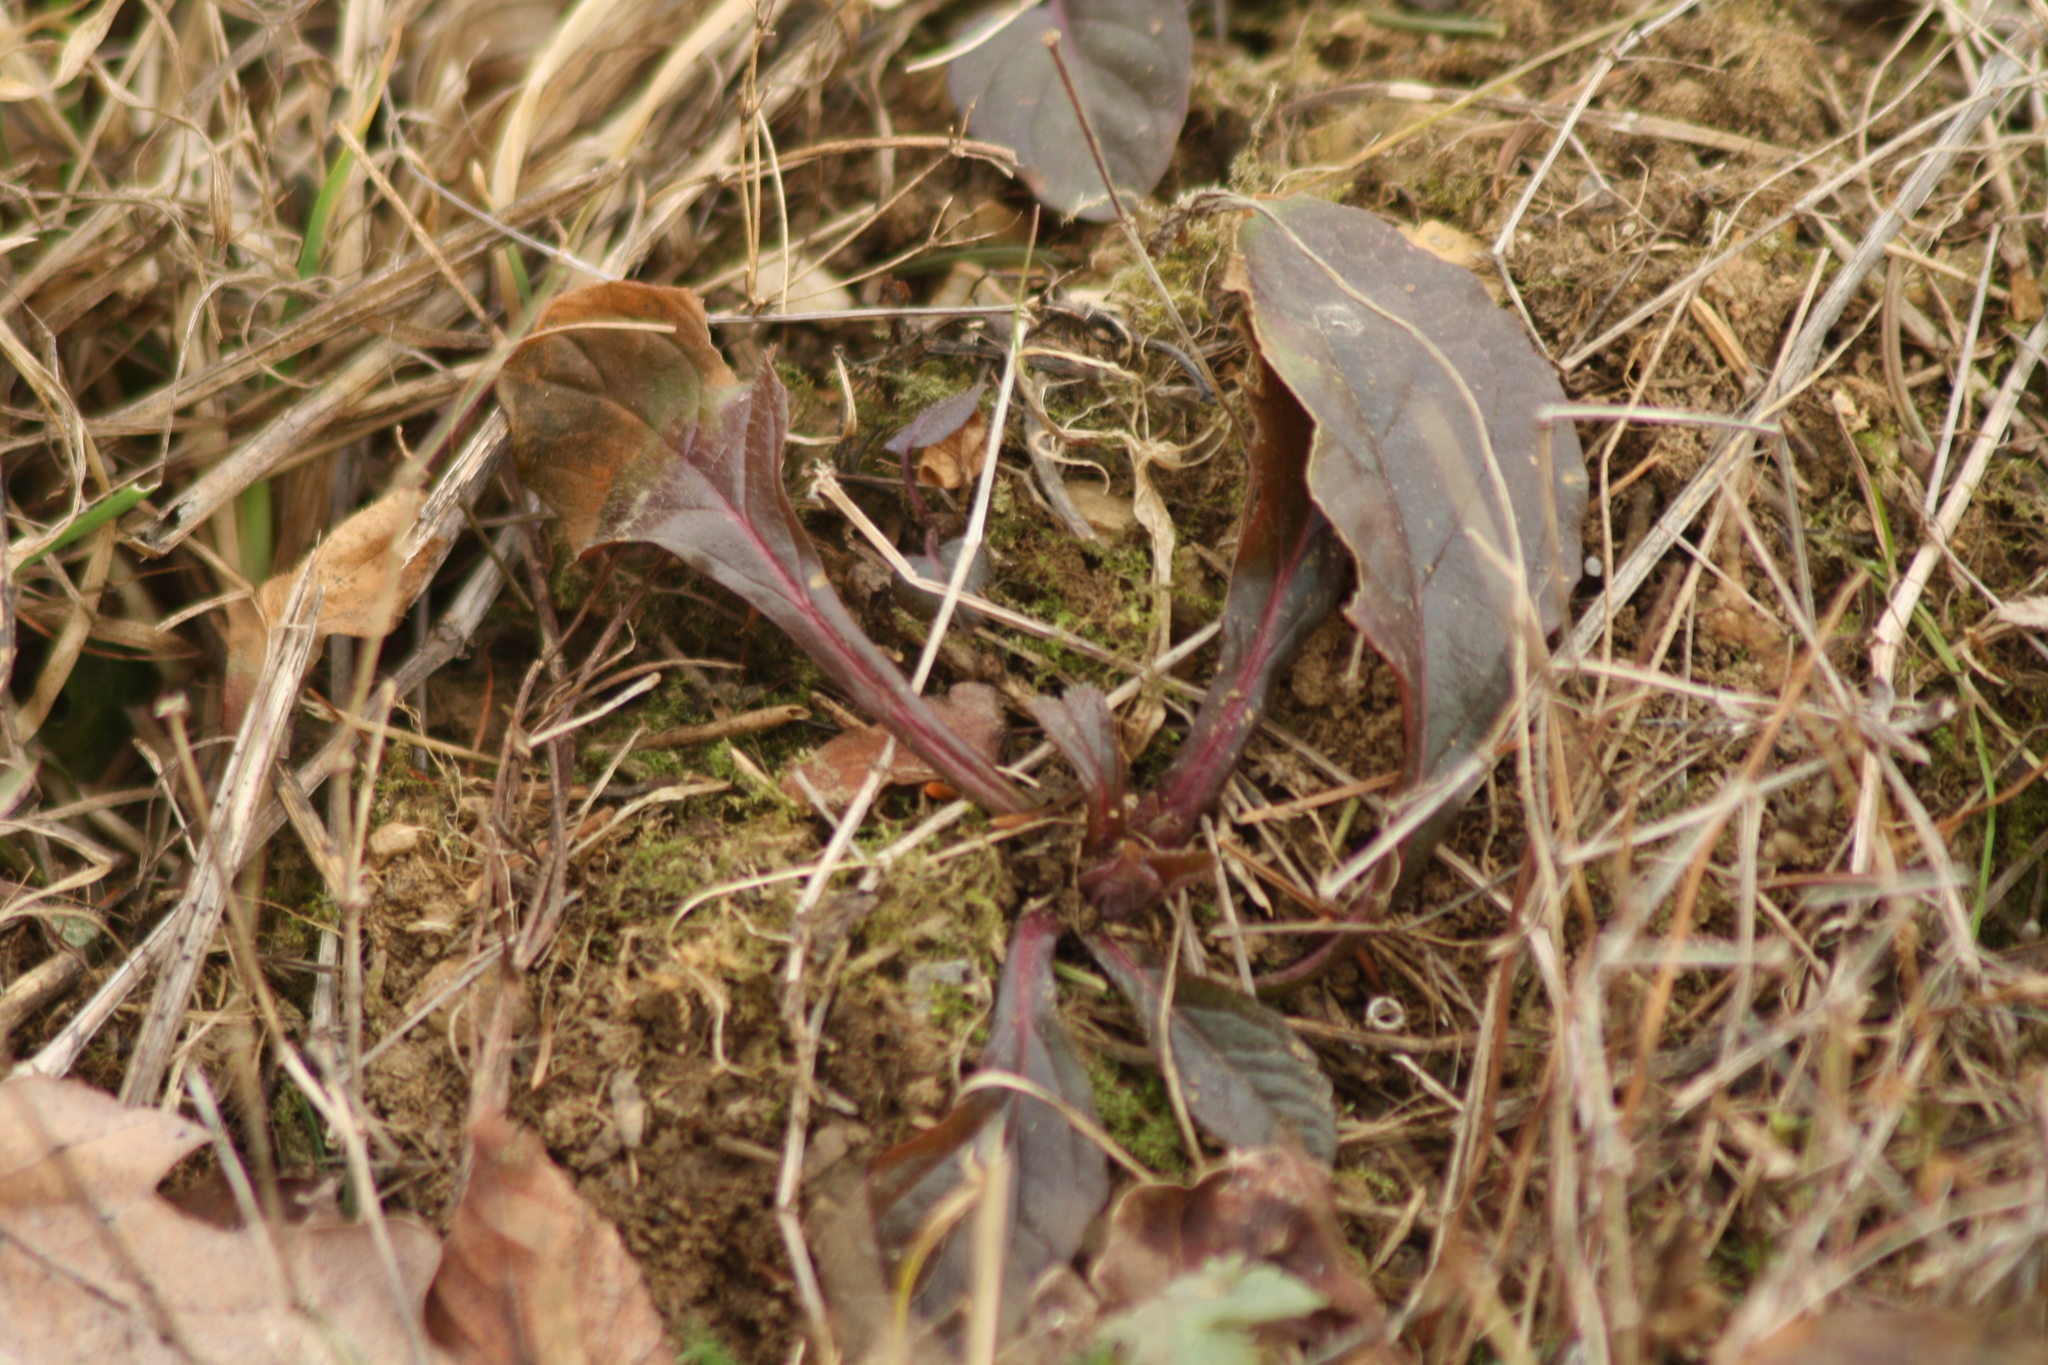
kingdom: Plantae
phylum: Tracheophyta
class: Magnoliopsida
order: Lamiales
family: Lamiaceae
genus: Ajuga
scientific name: Ajuga reptans
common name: Bugle
